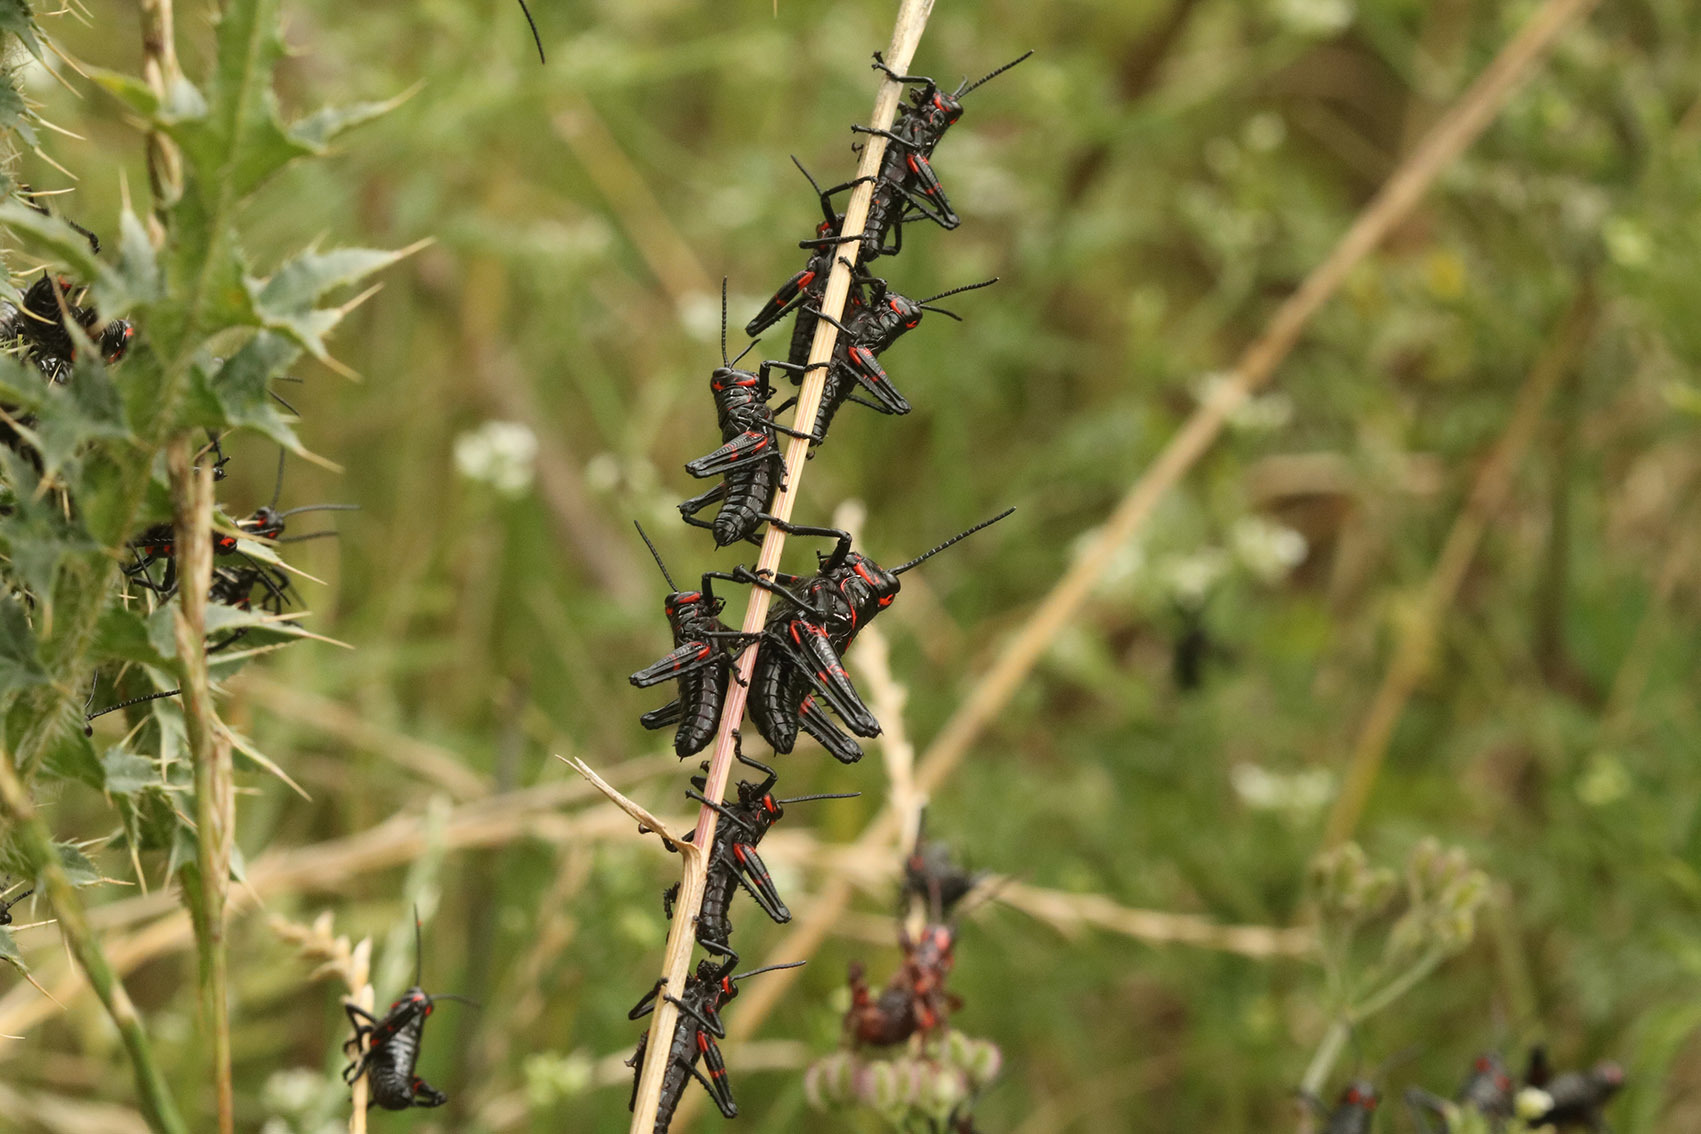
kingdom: Animalia
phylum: Arthropoda
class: Insecta
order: Orthoptera
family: Romaleidae
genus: Chromacris
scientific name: Chromacris speciosa
